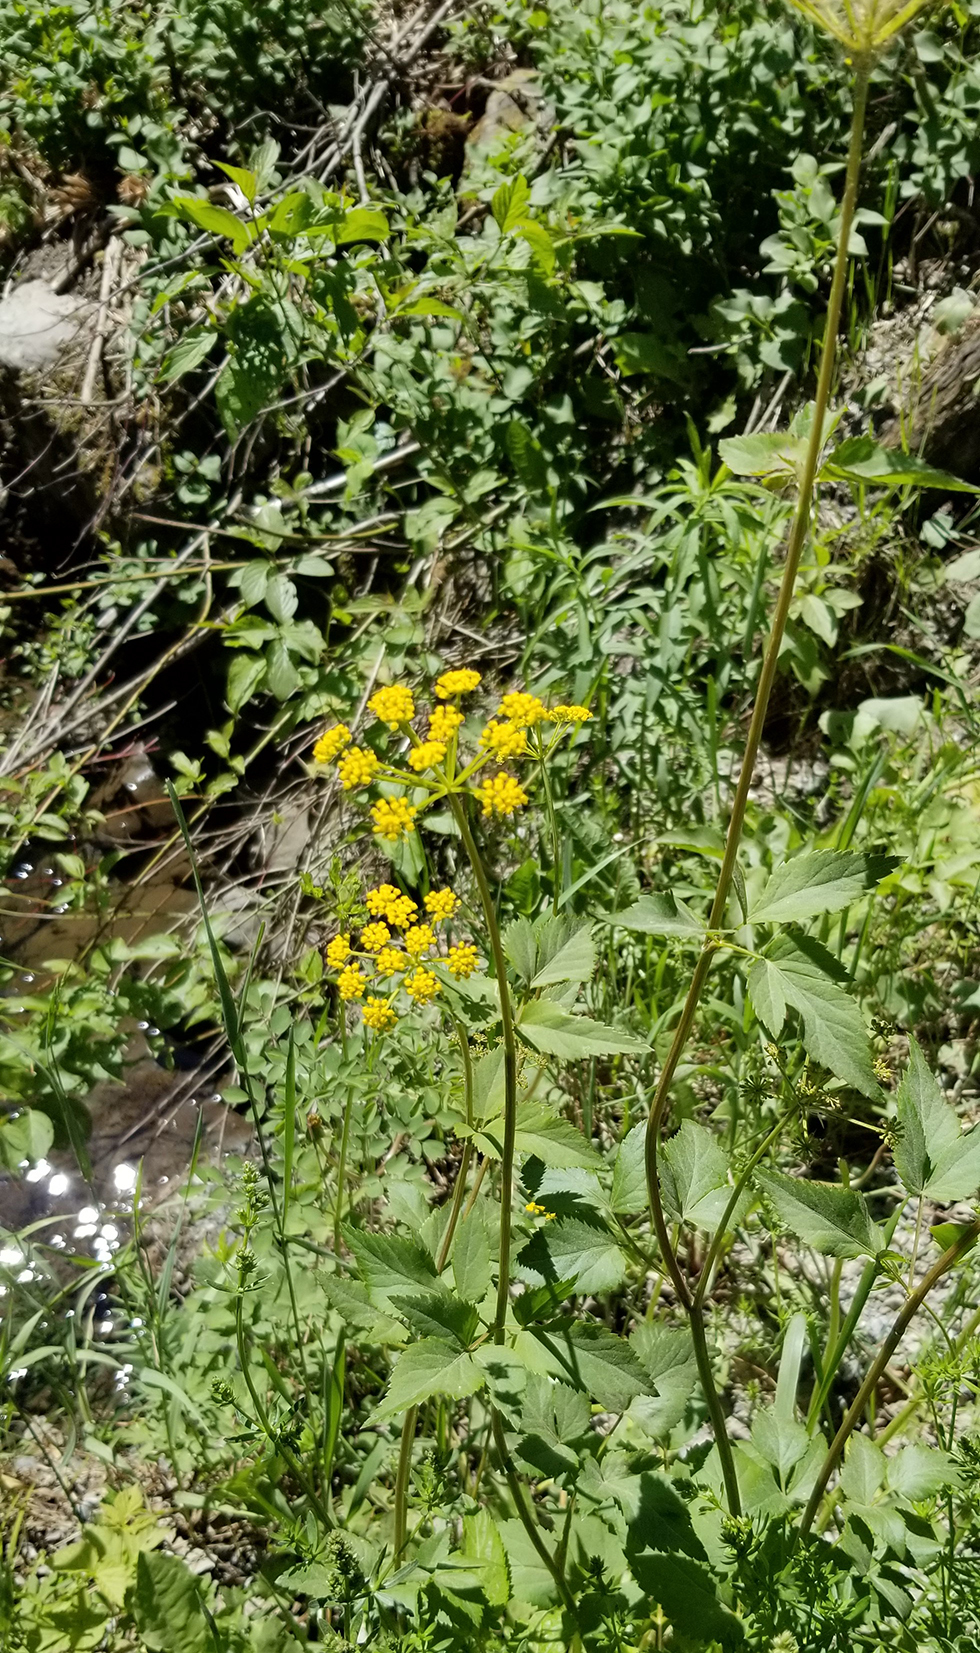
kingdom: Plantae
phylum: Tracheophyta
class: Magnoliopsida
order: Apiales
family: Apiaceae
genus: Zizia
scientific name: Zizia aurea
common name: Golden alexanders
